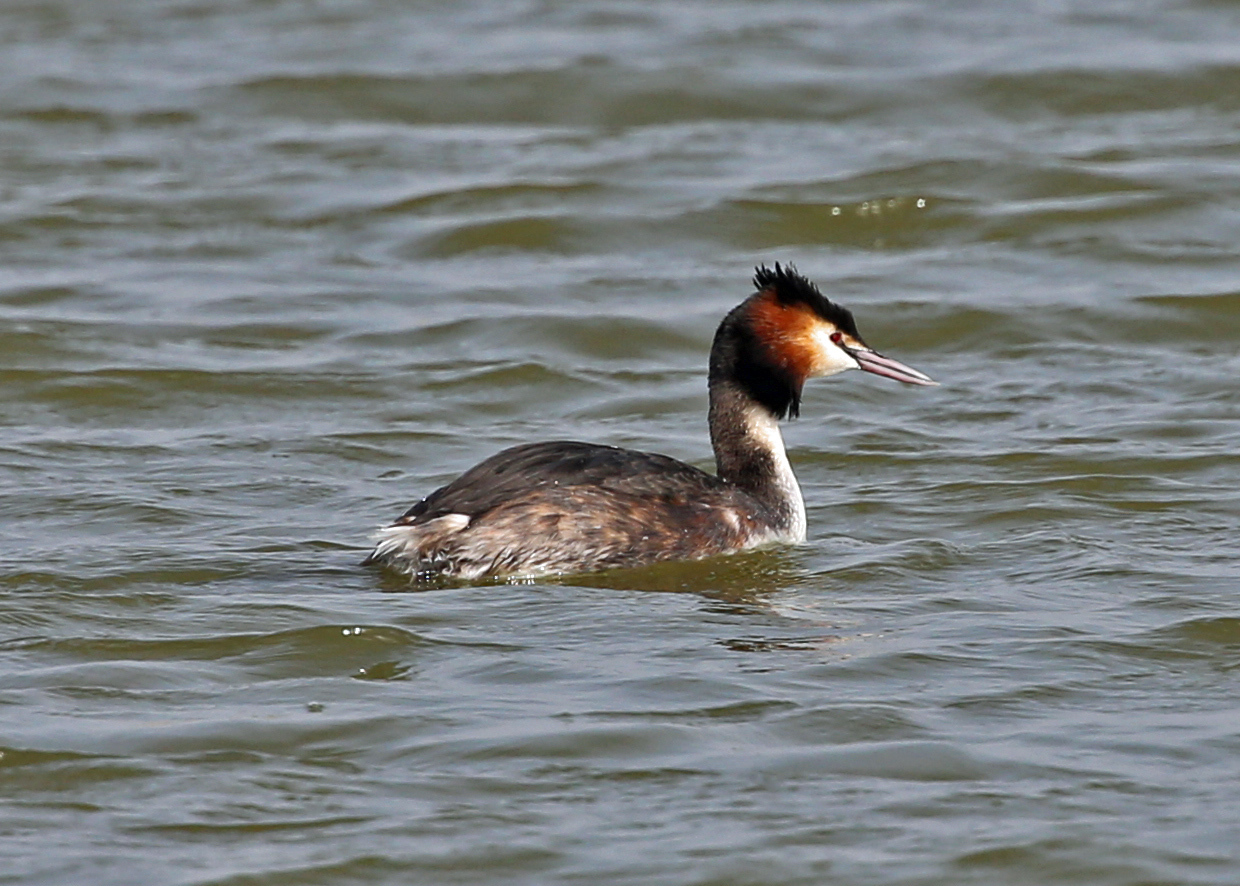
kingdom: Animalia
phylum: Chordata
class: Aves
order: Podicipediformes
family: Podicipedidae
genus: Podiceps
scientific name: Podiceps cristatus
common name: Great crested grebe
